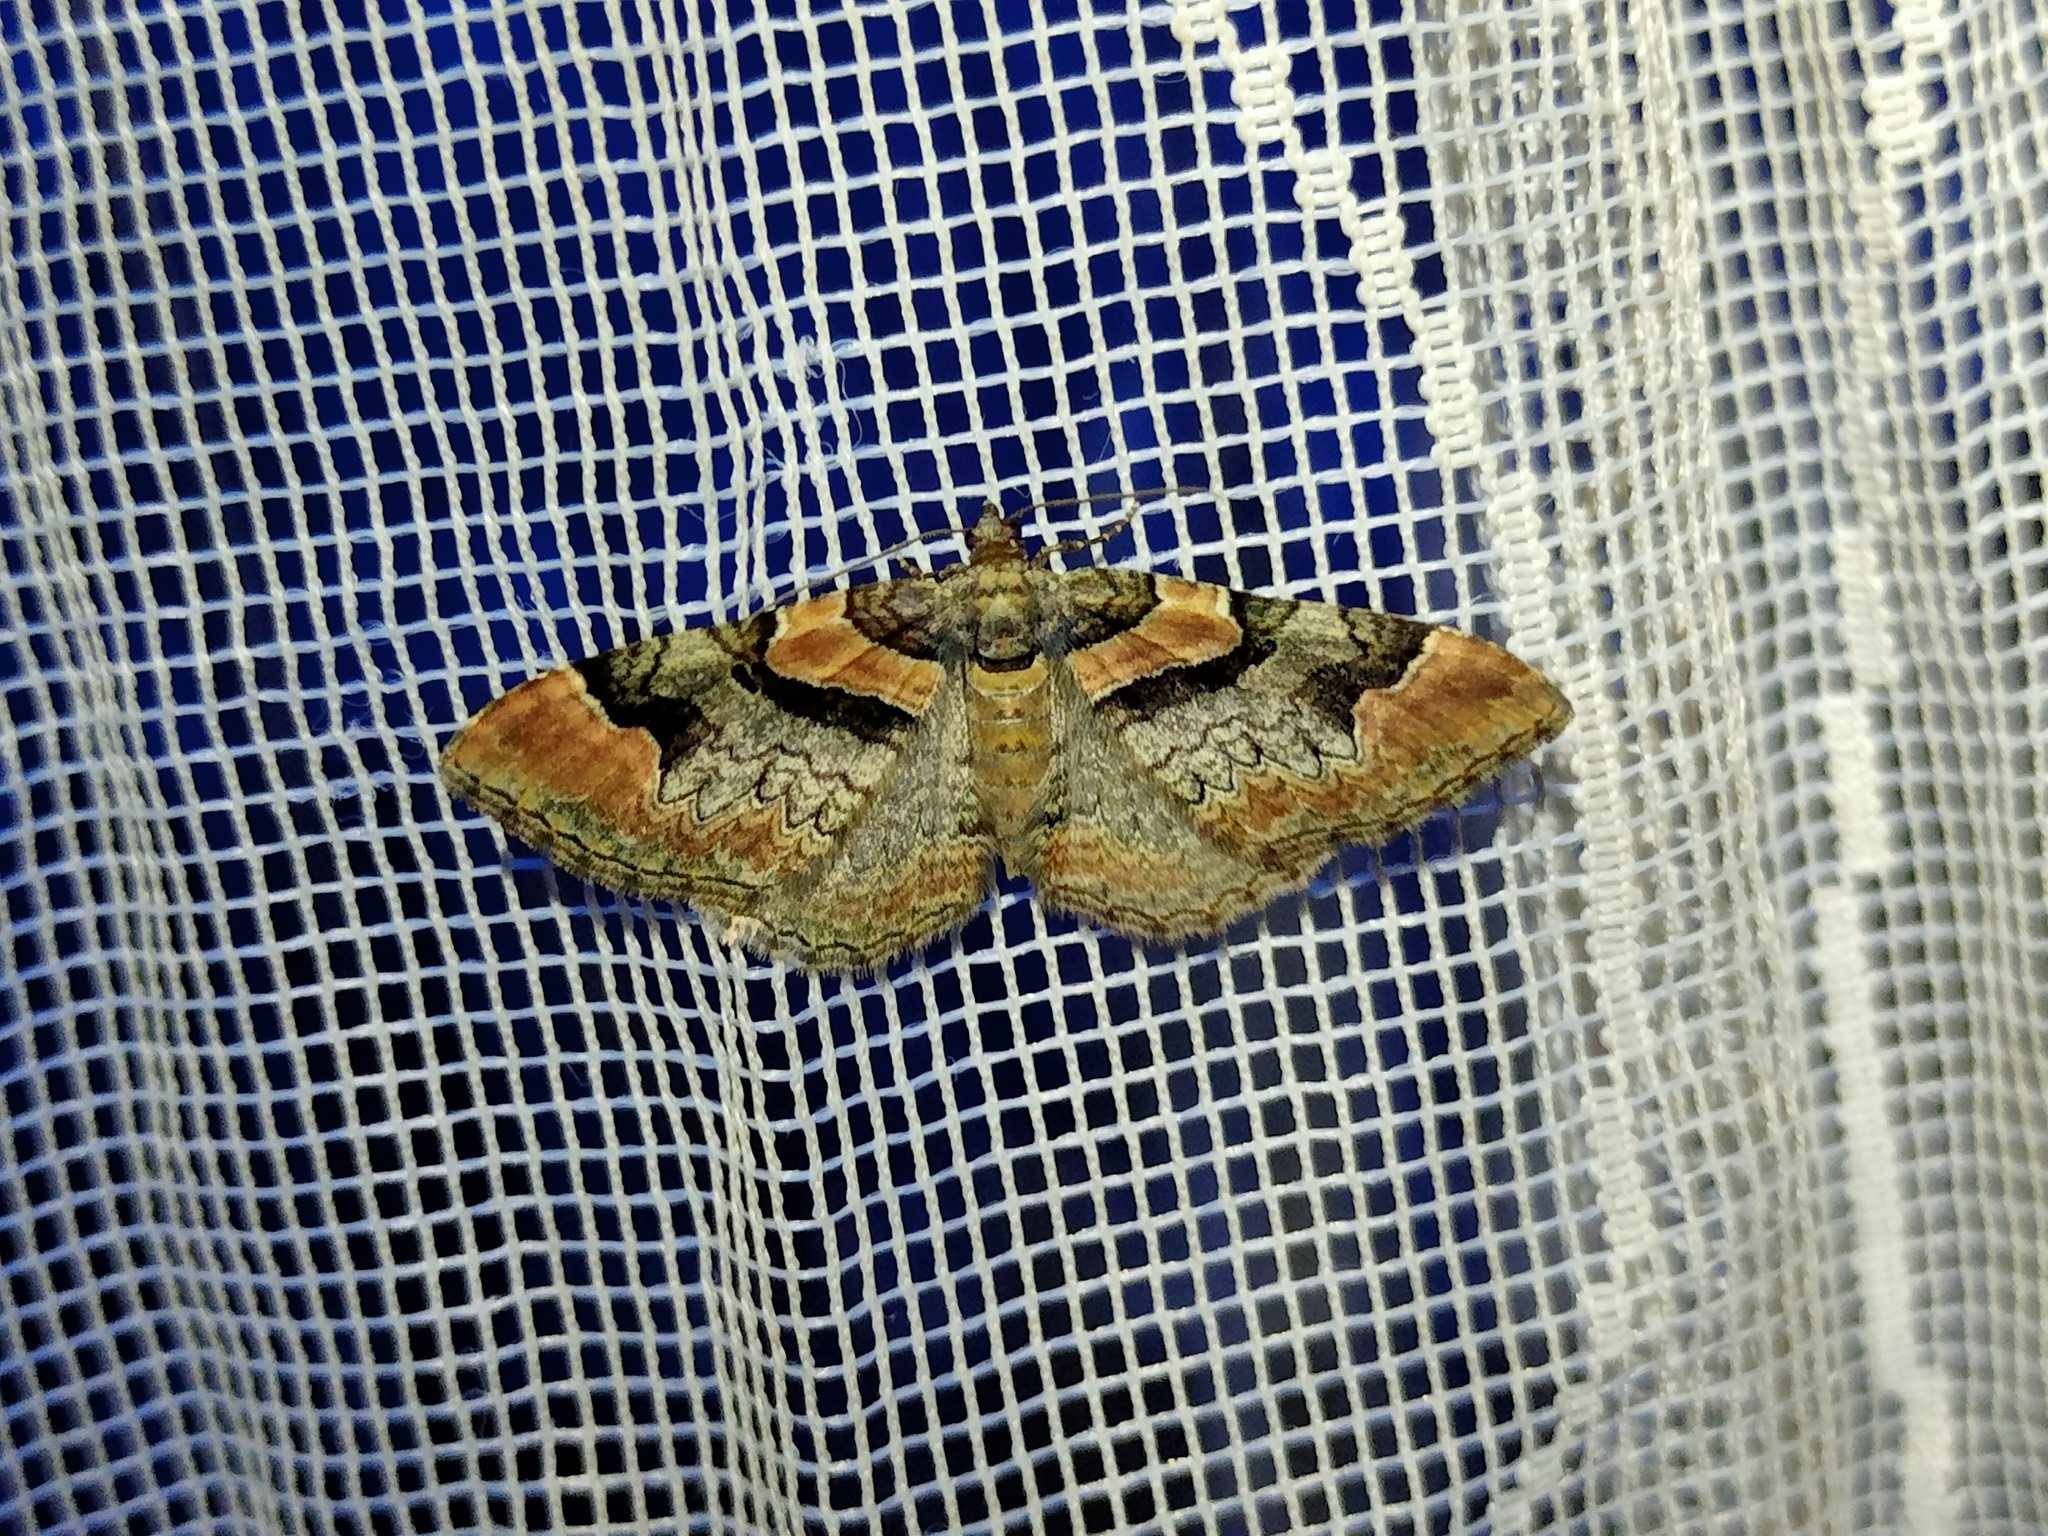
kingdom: Animalia
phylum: Arthropoda
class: Insecta
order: Lepidoptera
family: Geometridae
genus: Catarhoe
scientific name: Catarhoe rubidata
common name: Ruddy carpet
